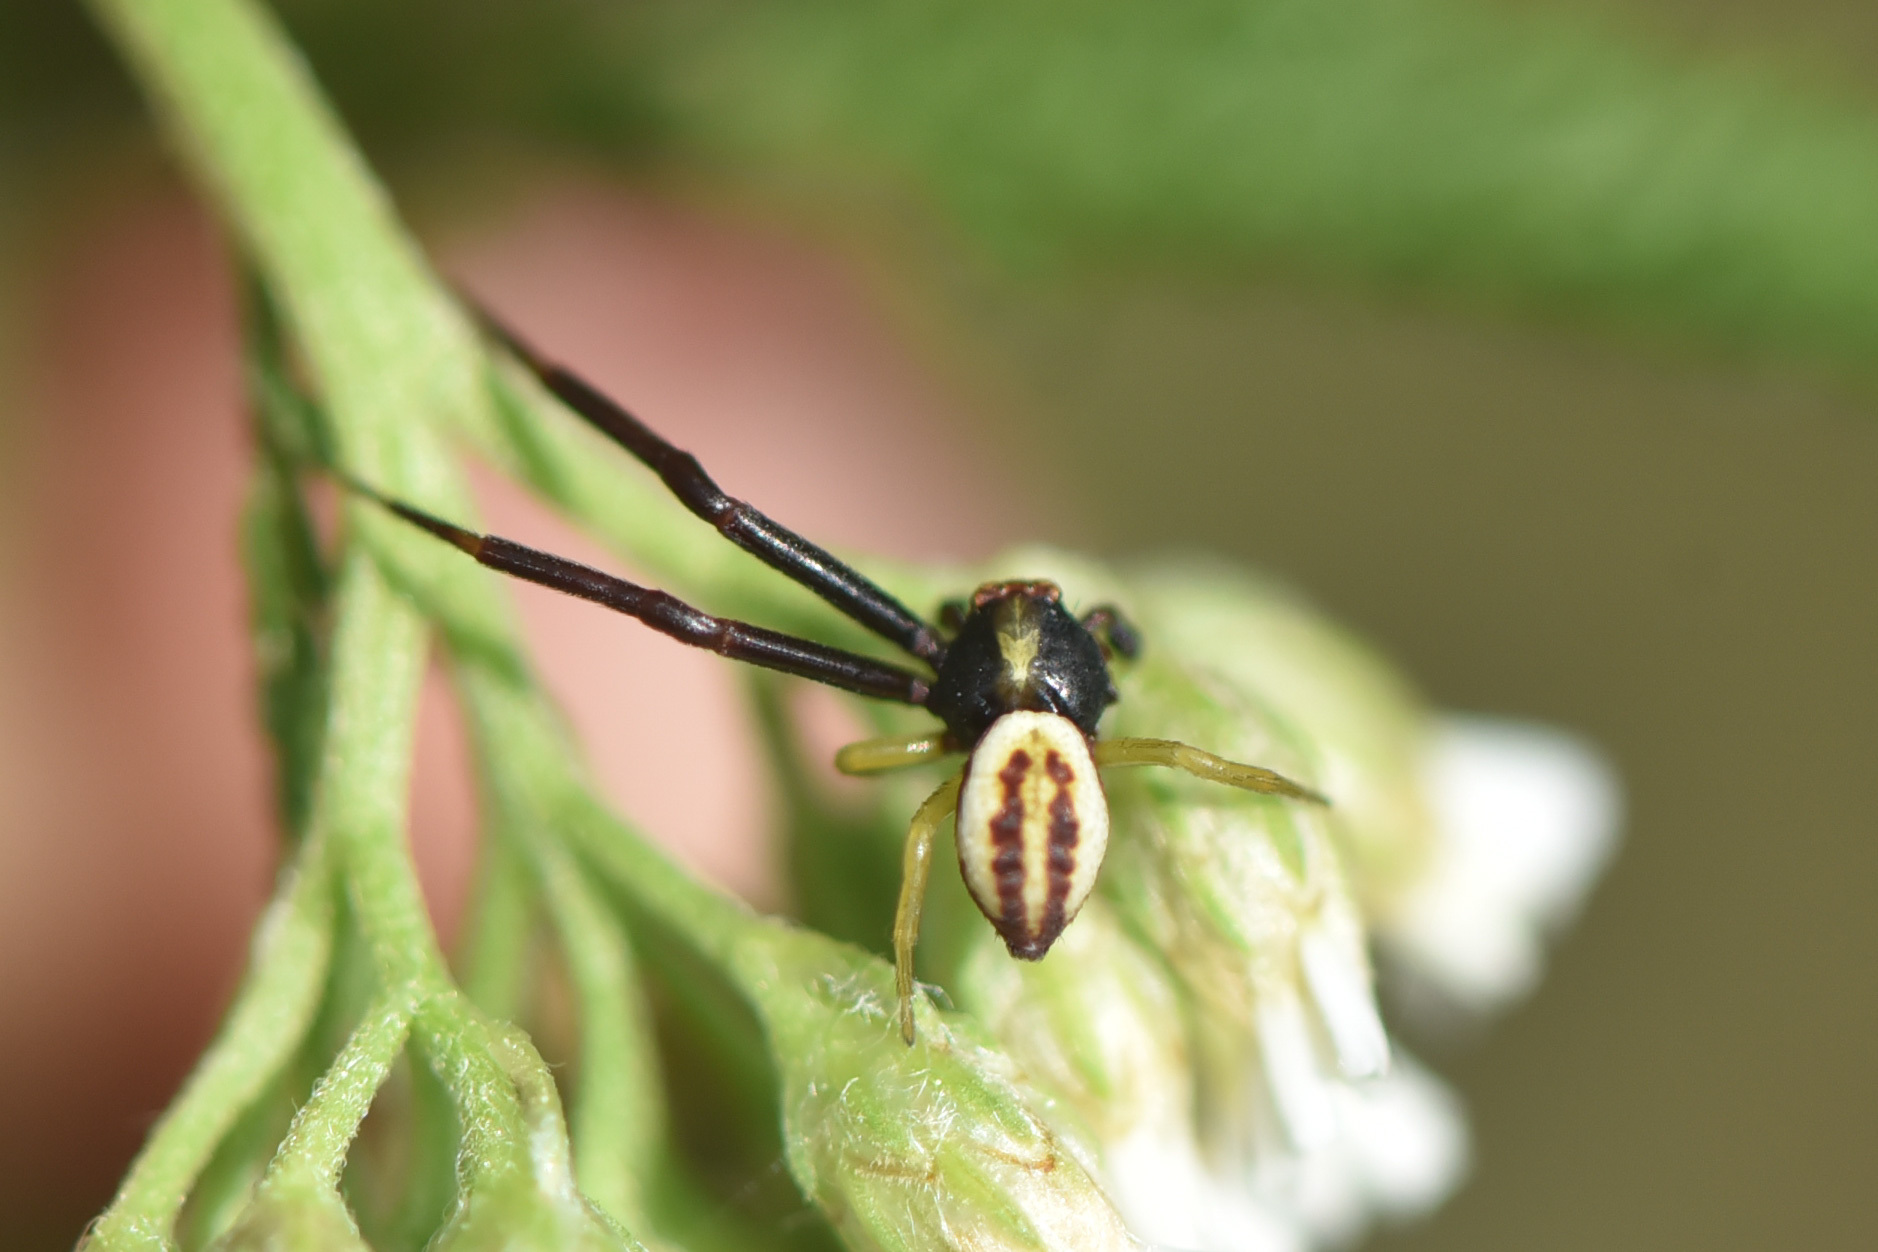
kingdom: Animalia
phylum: Arthropoda
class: Arachnida
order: Araneae
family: Thomisidae
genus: Misumena
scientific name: Misumena vatia
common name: Goldenrod crab spider
